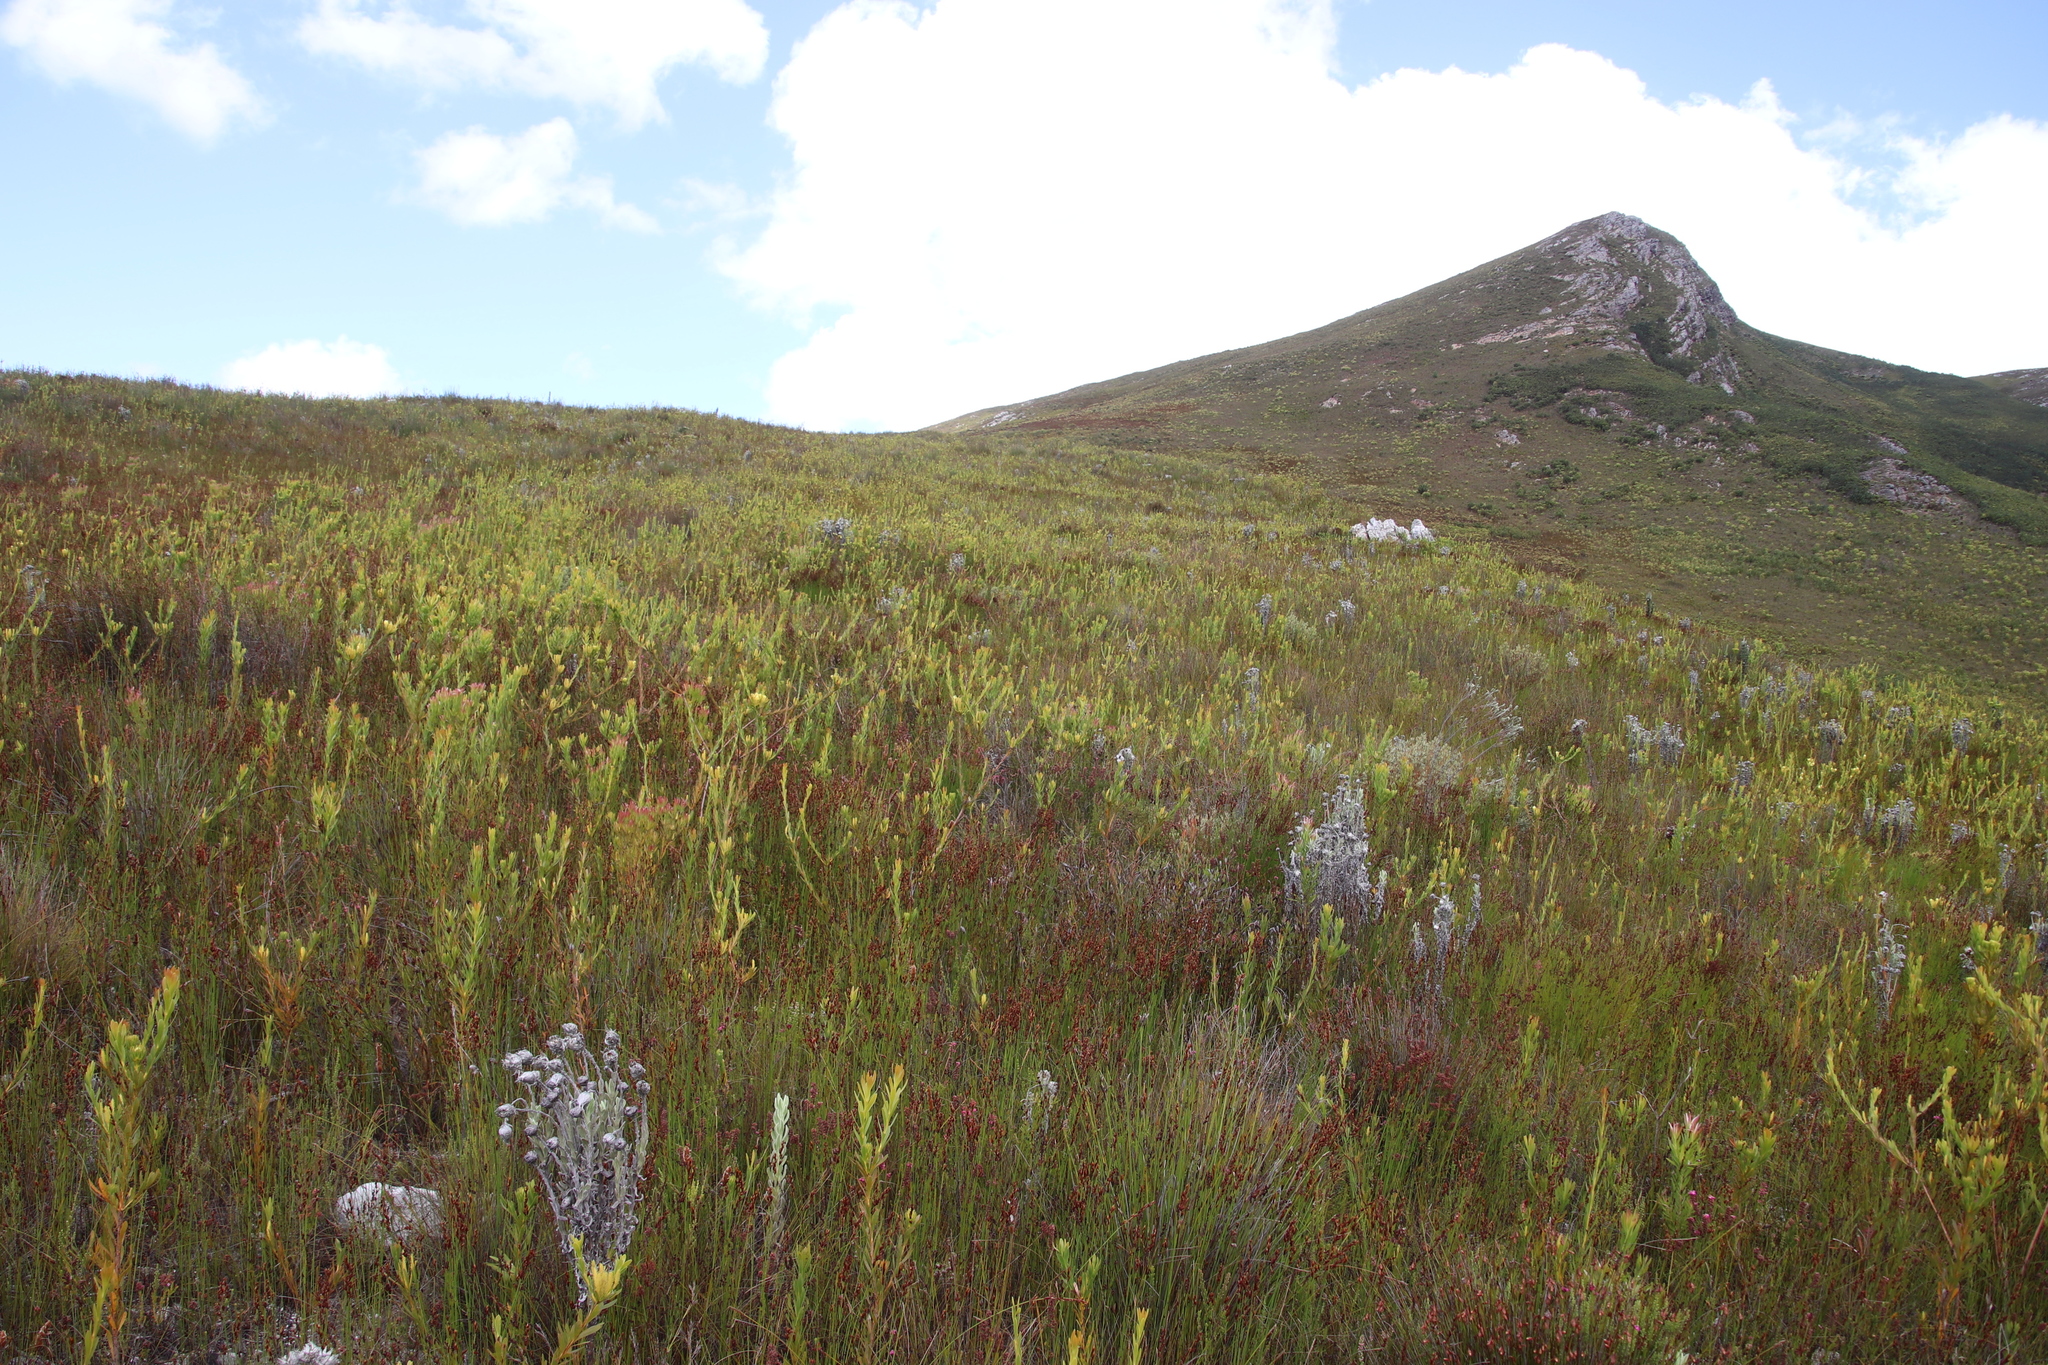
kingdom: Plantae
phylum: Tracheophyta
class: Magnoliopsida
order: Proteales
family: Proteaceae
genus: Aulax
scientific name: Aulax umbellata
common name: Broad-leaf featherbush
